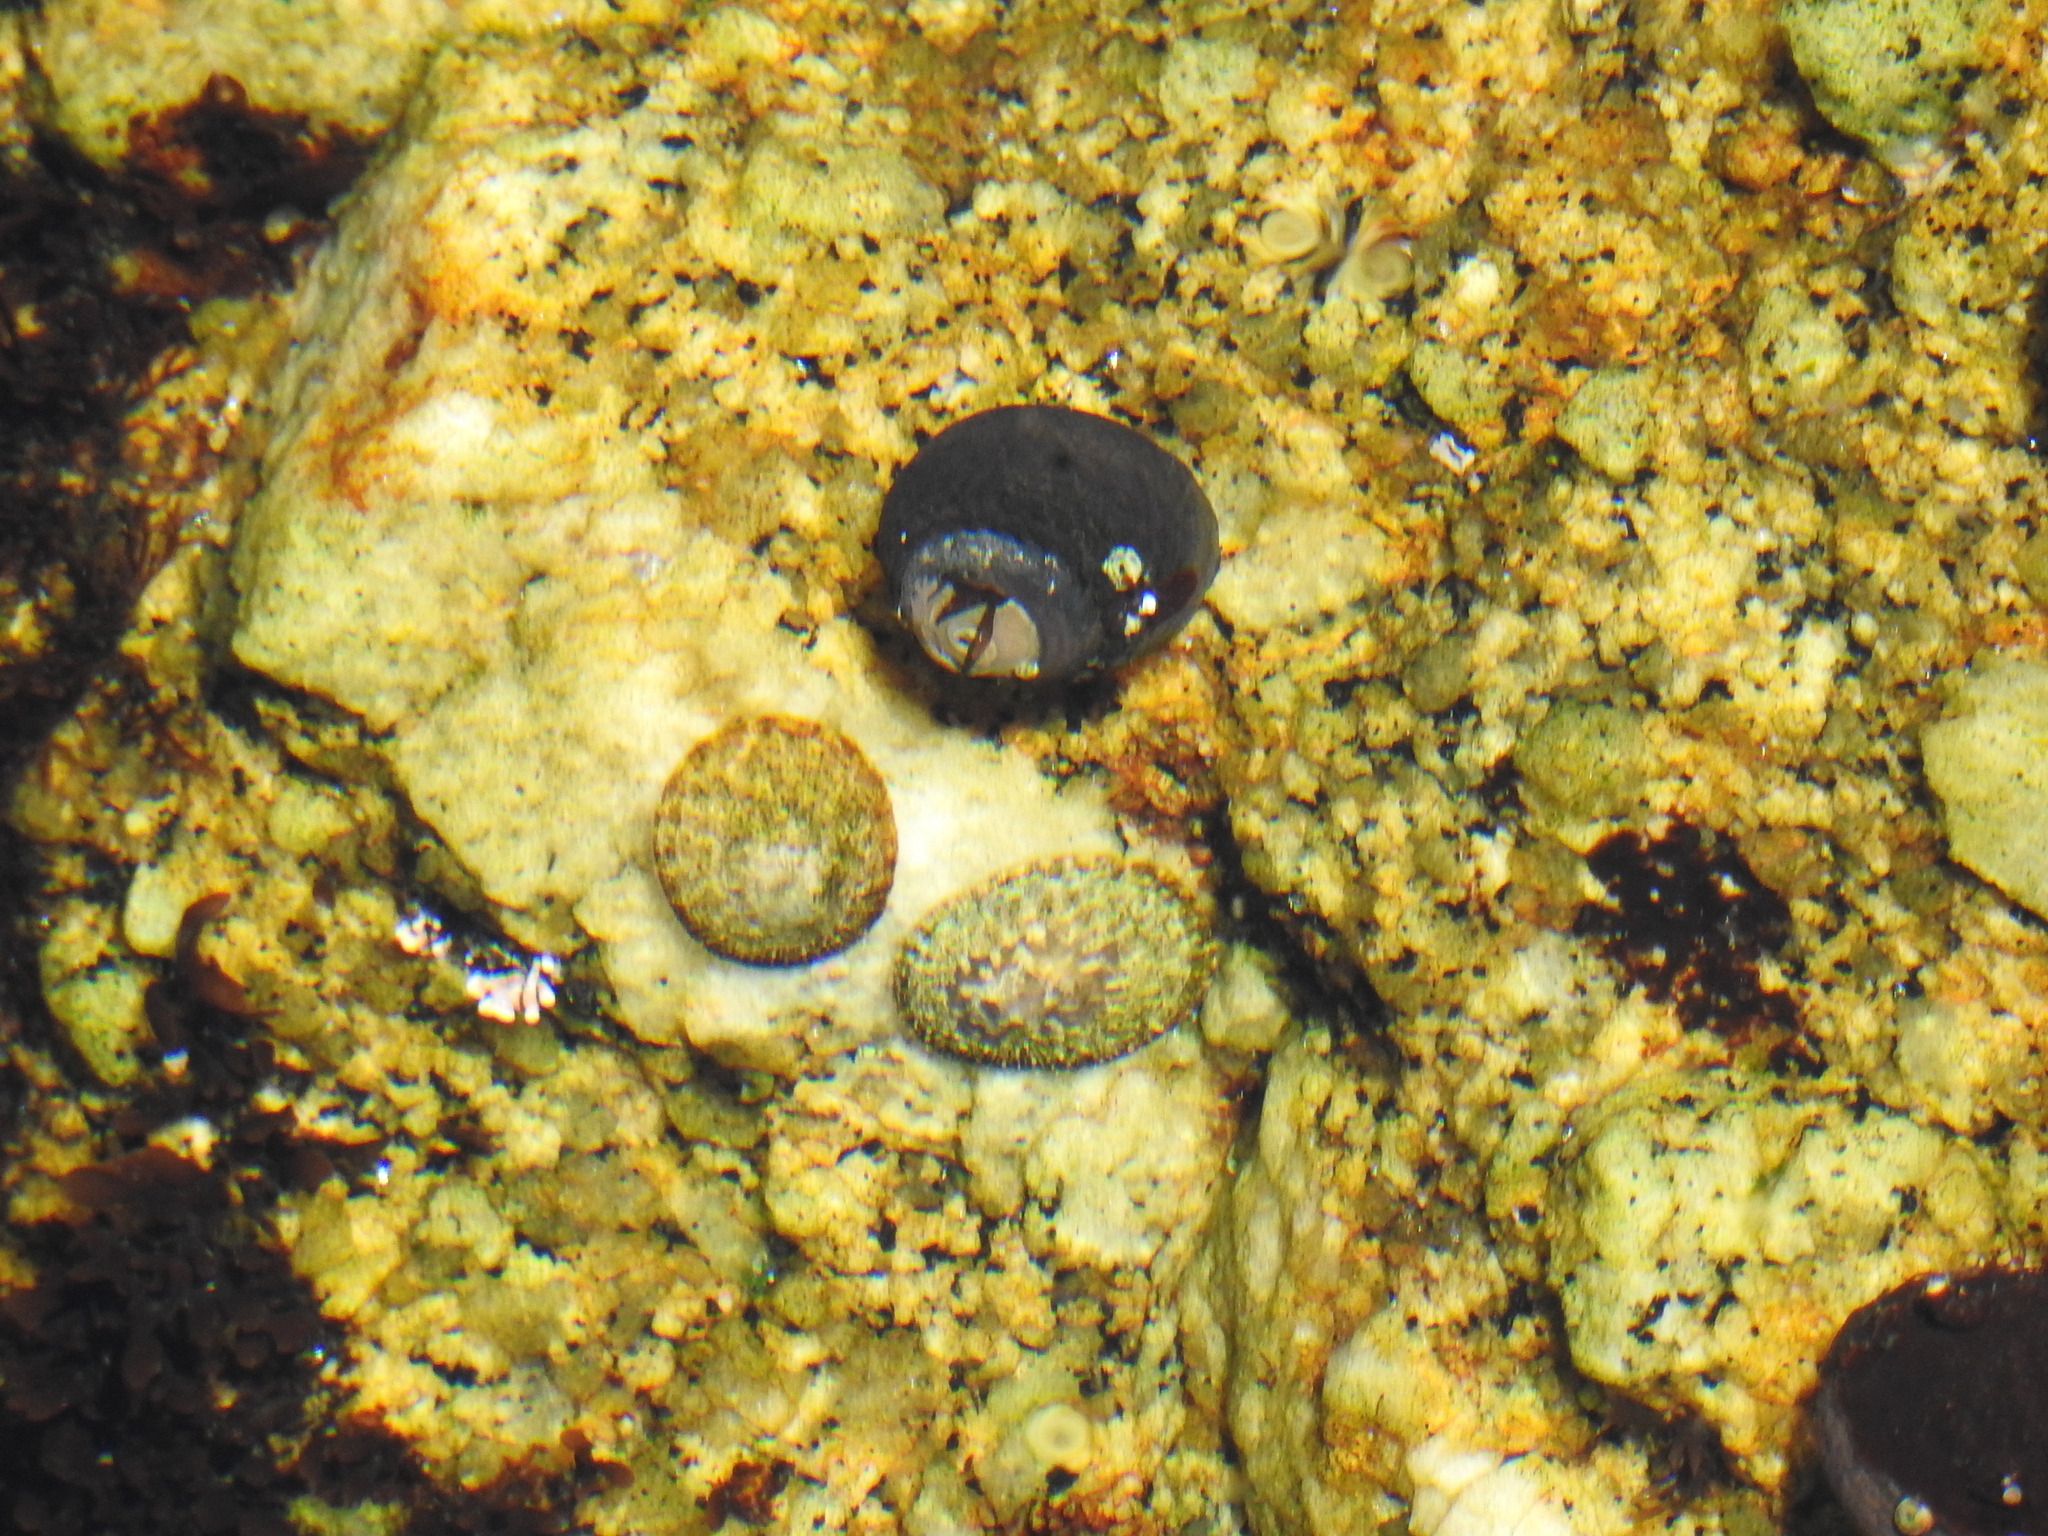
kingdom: Animalia
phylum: Mollusca
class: Gastropoda
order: Trochida
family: Tegulidae
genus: Tegula
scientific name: Tegula funebralis
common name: Black tegula
